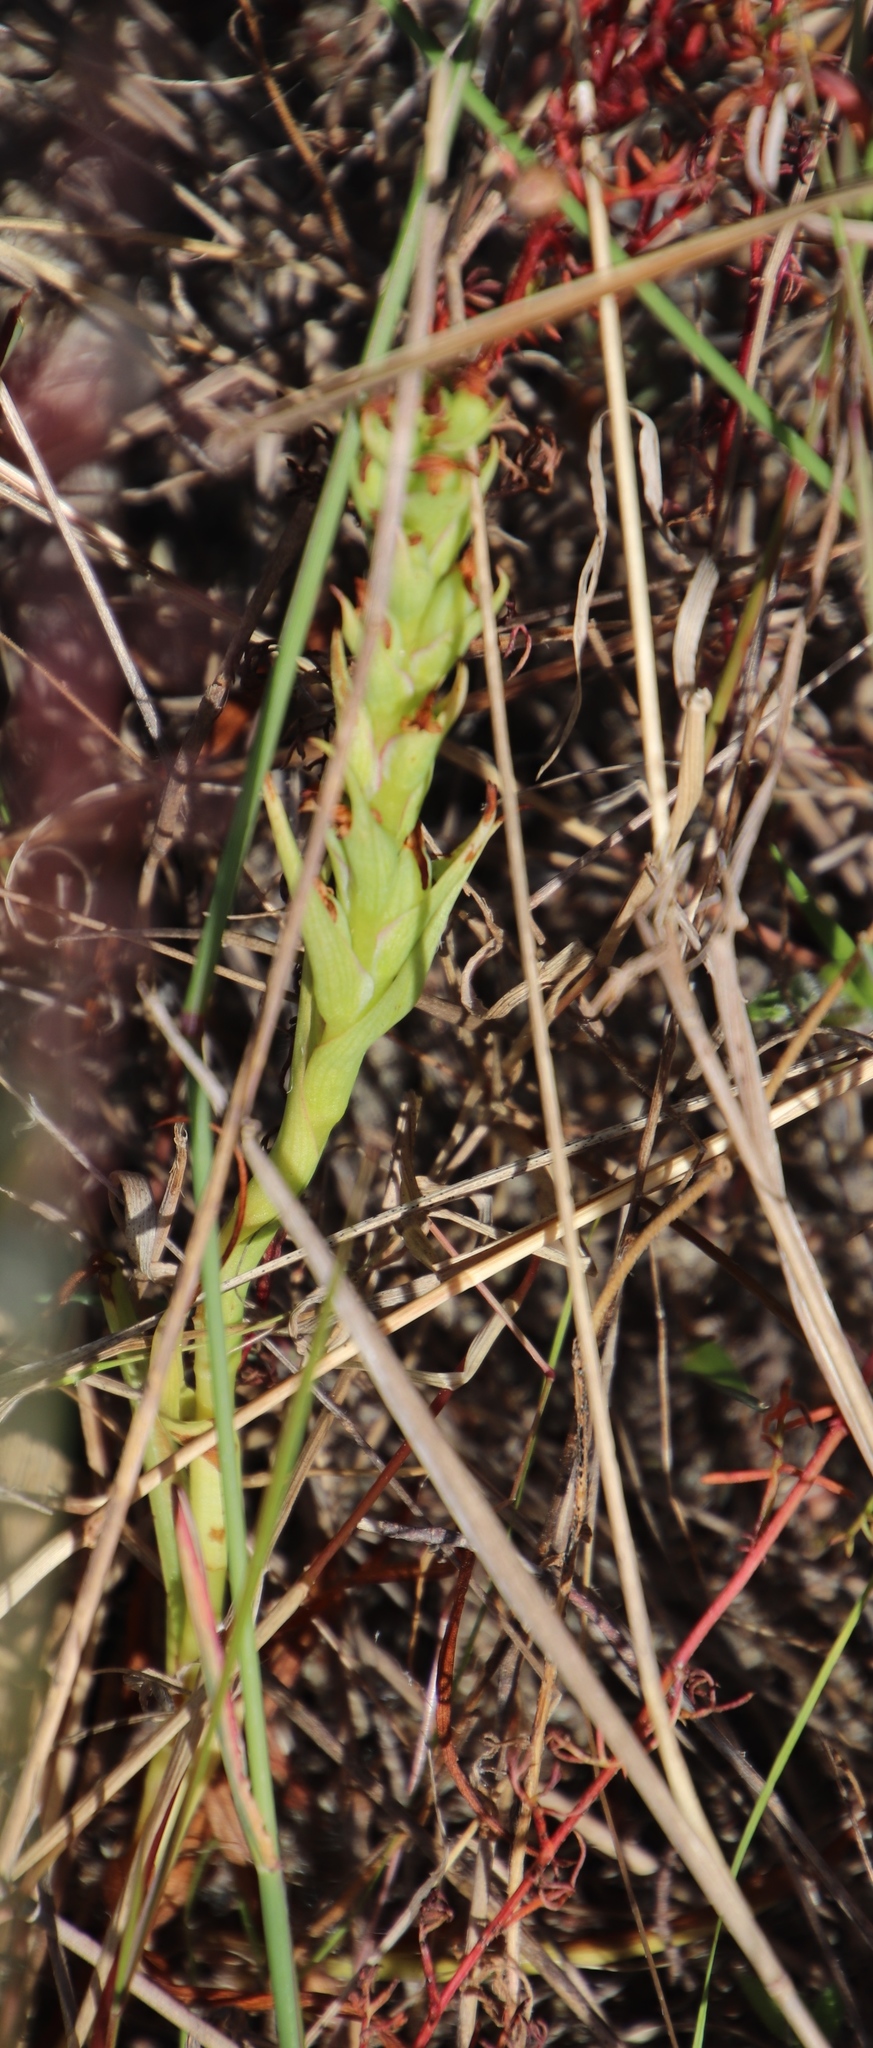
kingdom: Plantae
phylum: Tracheophyta
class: Liliopsida
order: Asparagales
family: Orchidaceae
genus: Disa
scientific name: Disa bracteata
